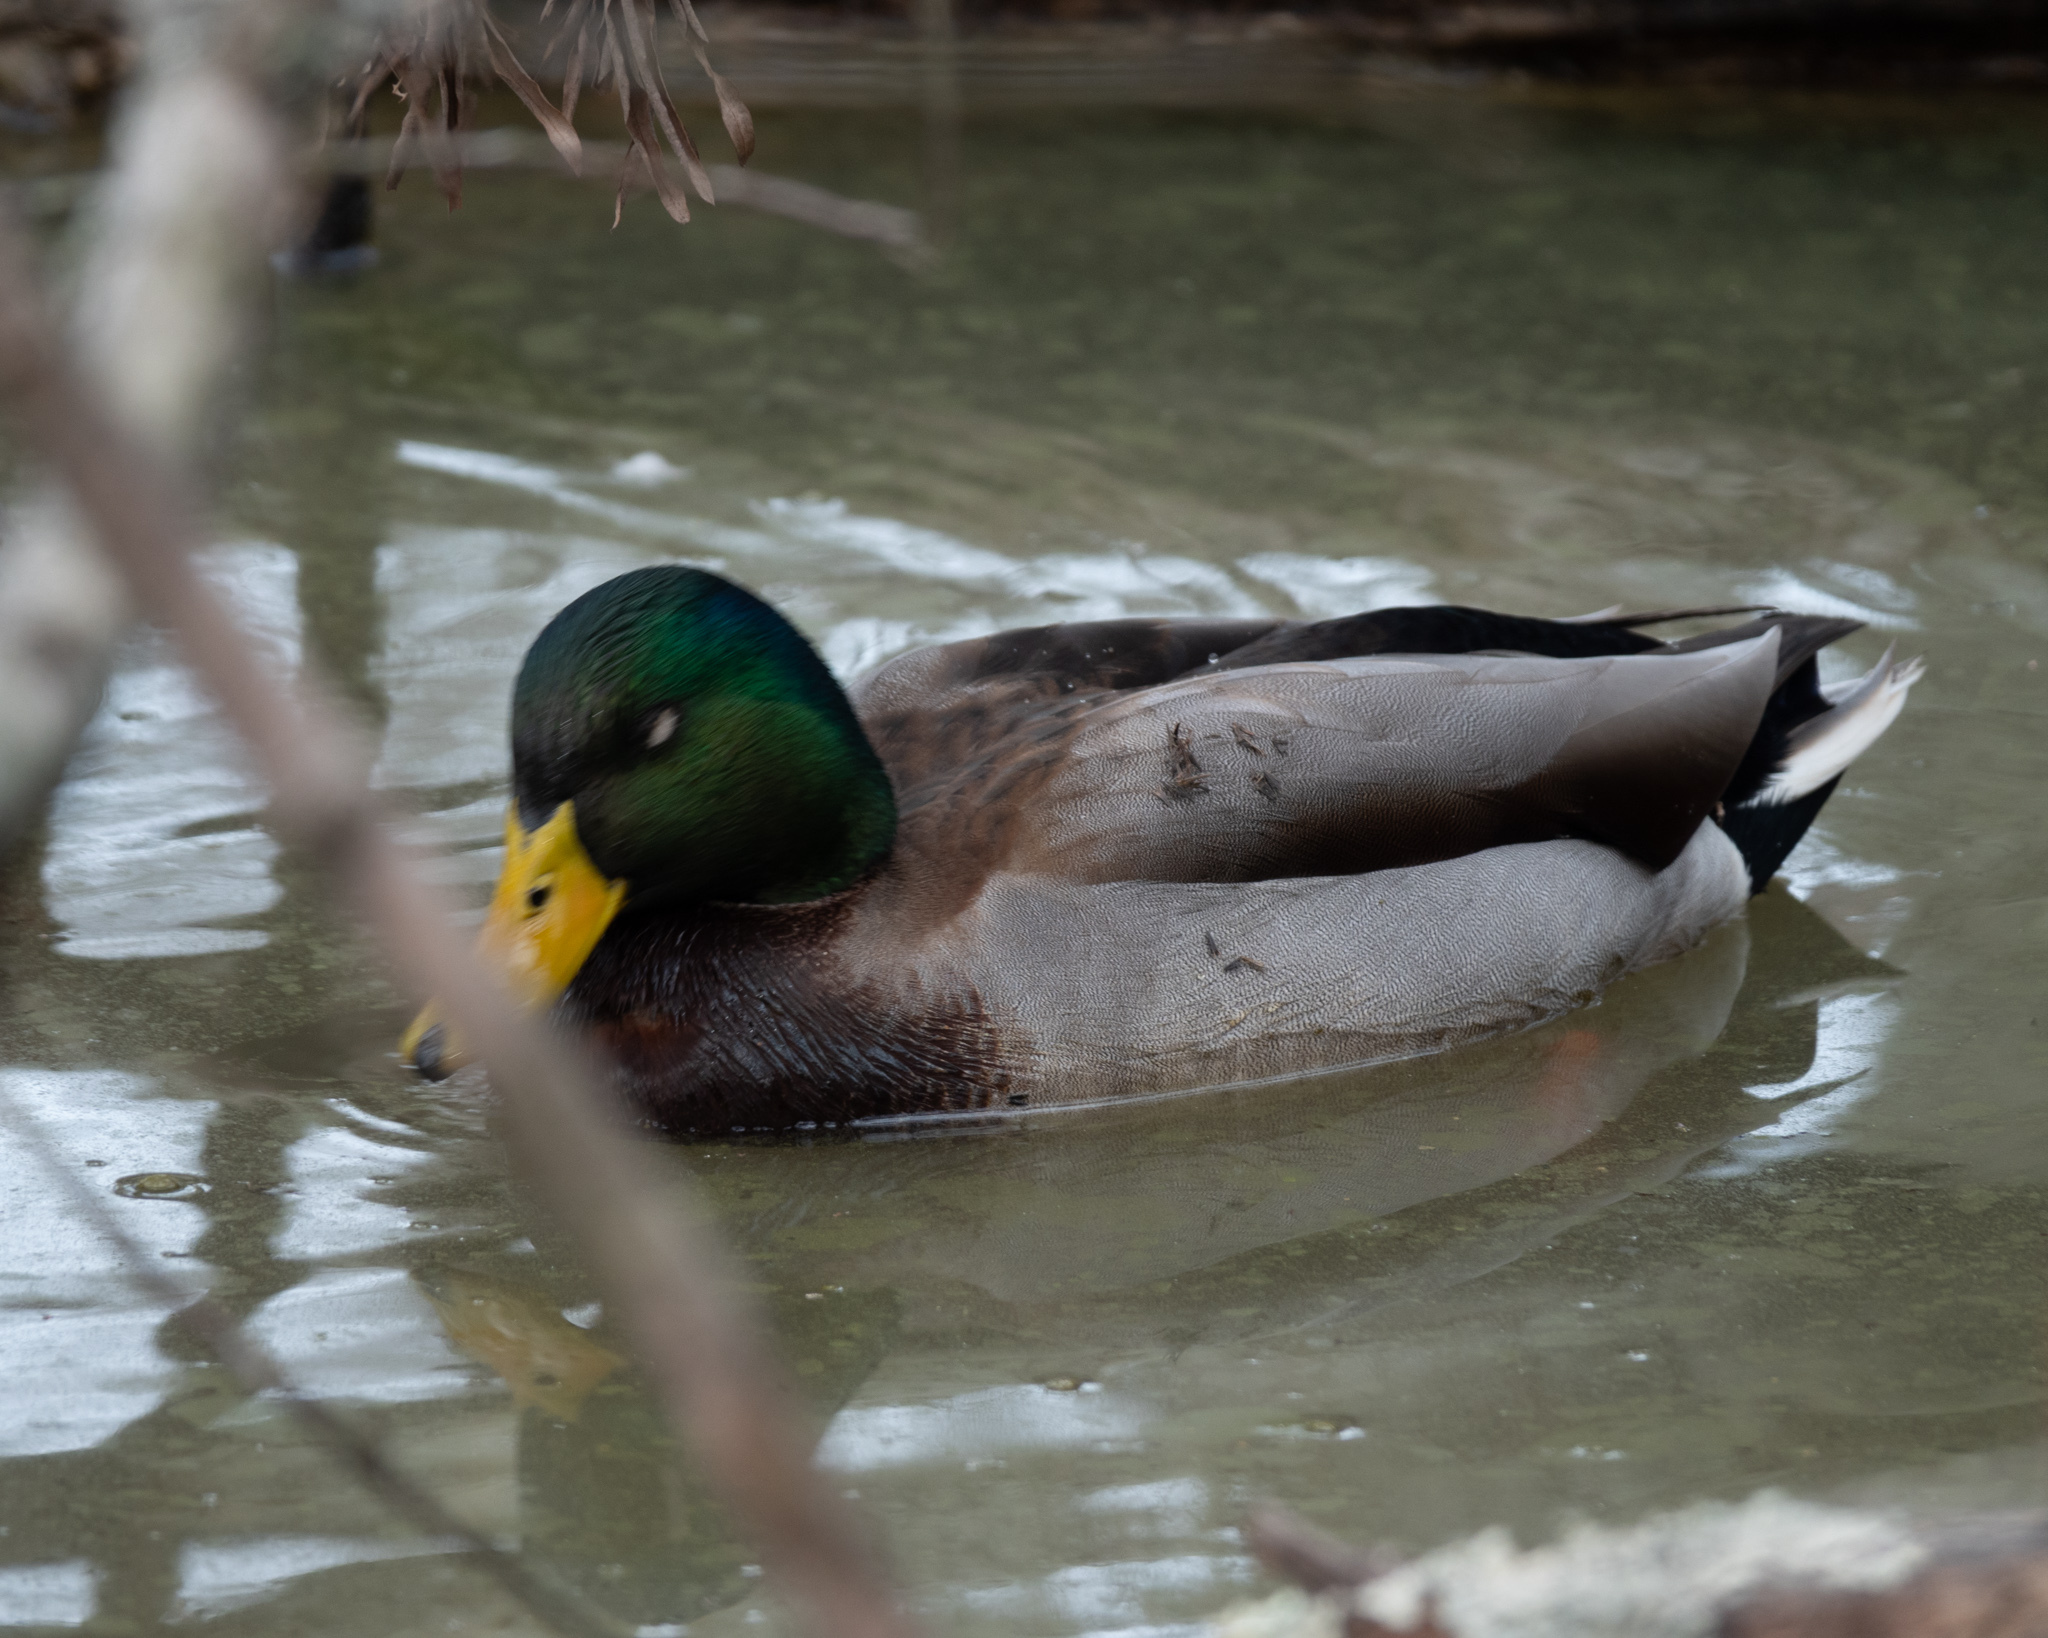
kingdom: Animalia
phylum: Chordata
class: Aves
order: Anseriformes
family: Anatidae
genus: Anas
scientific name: Anas platyrhynchos
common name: Mallard
